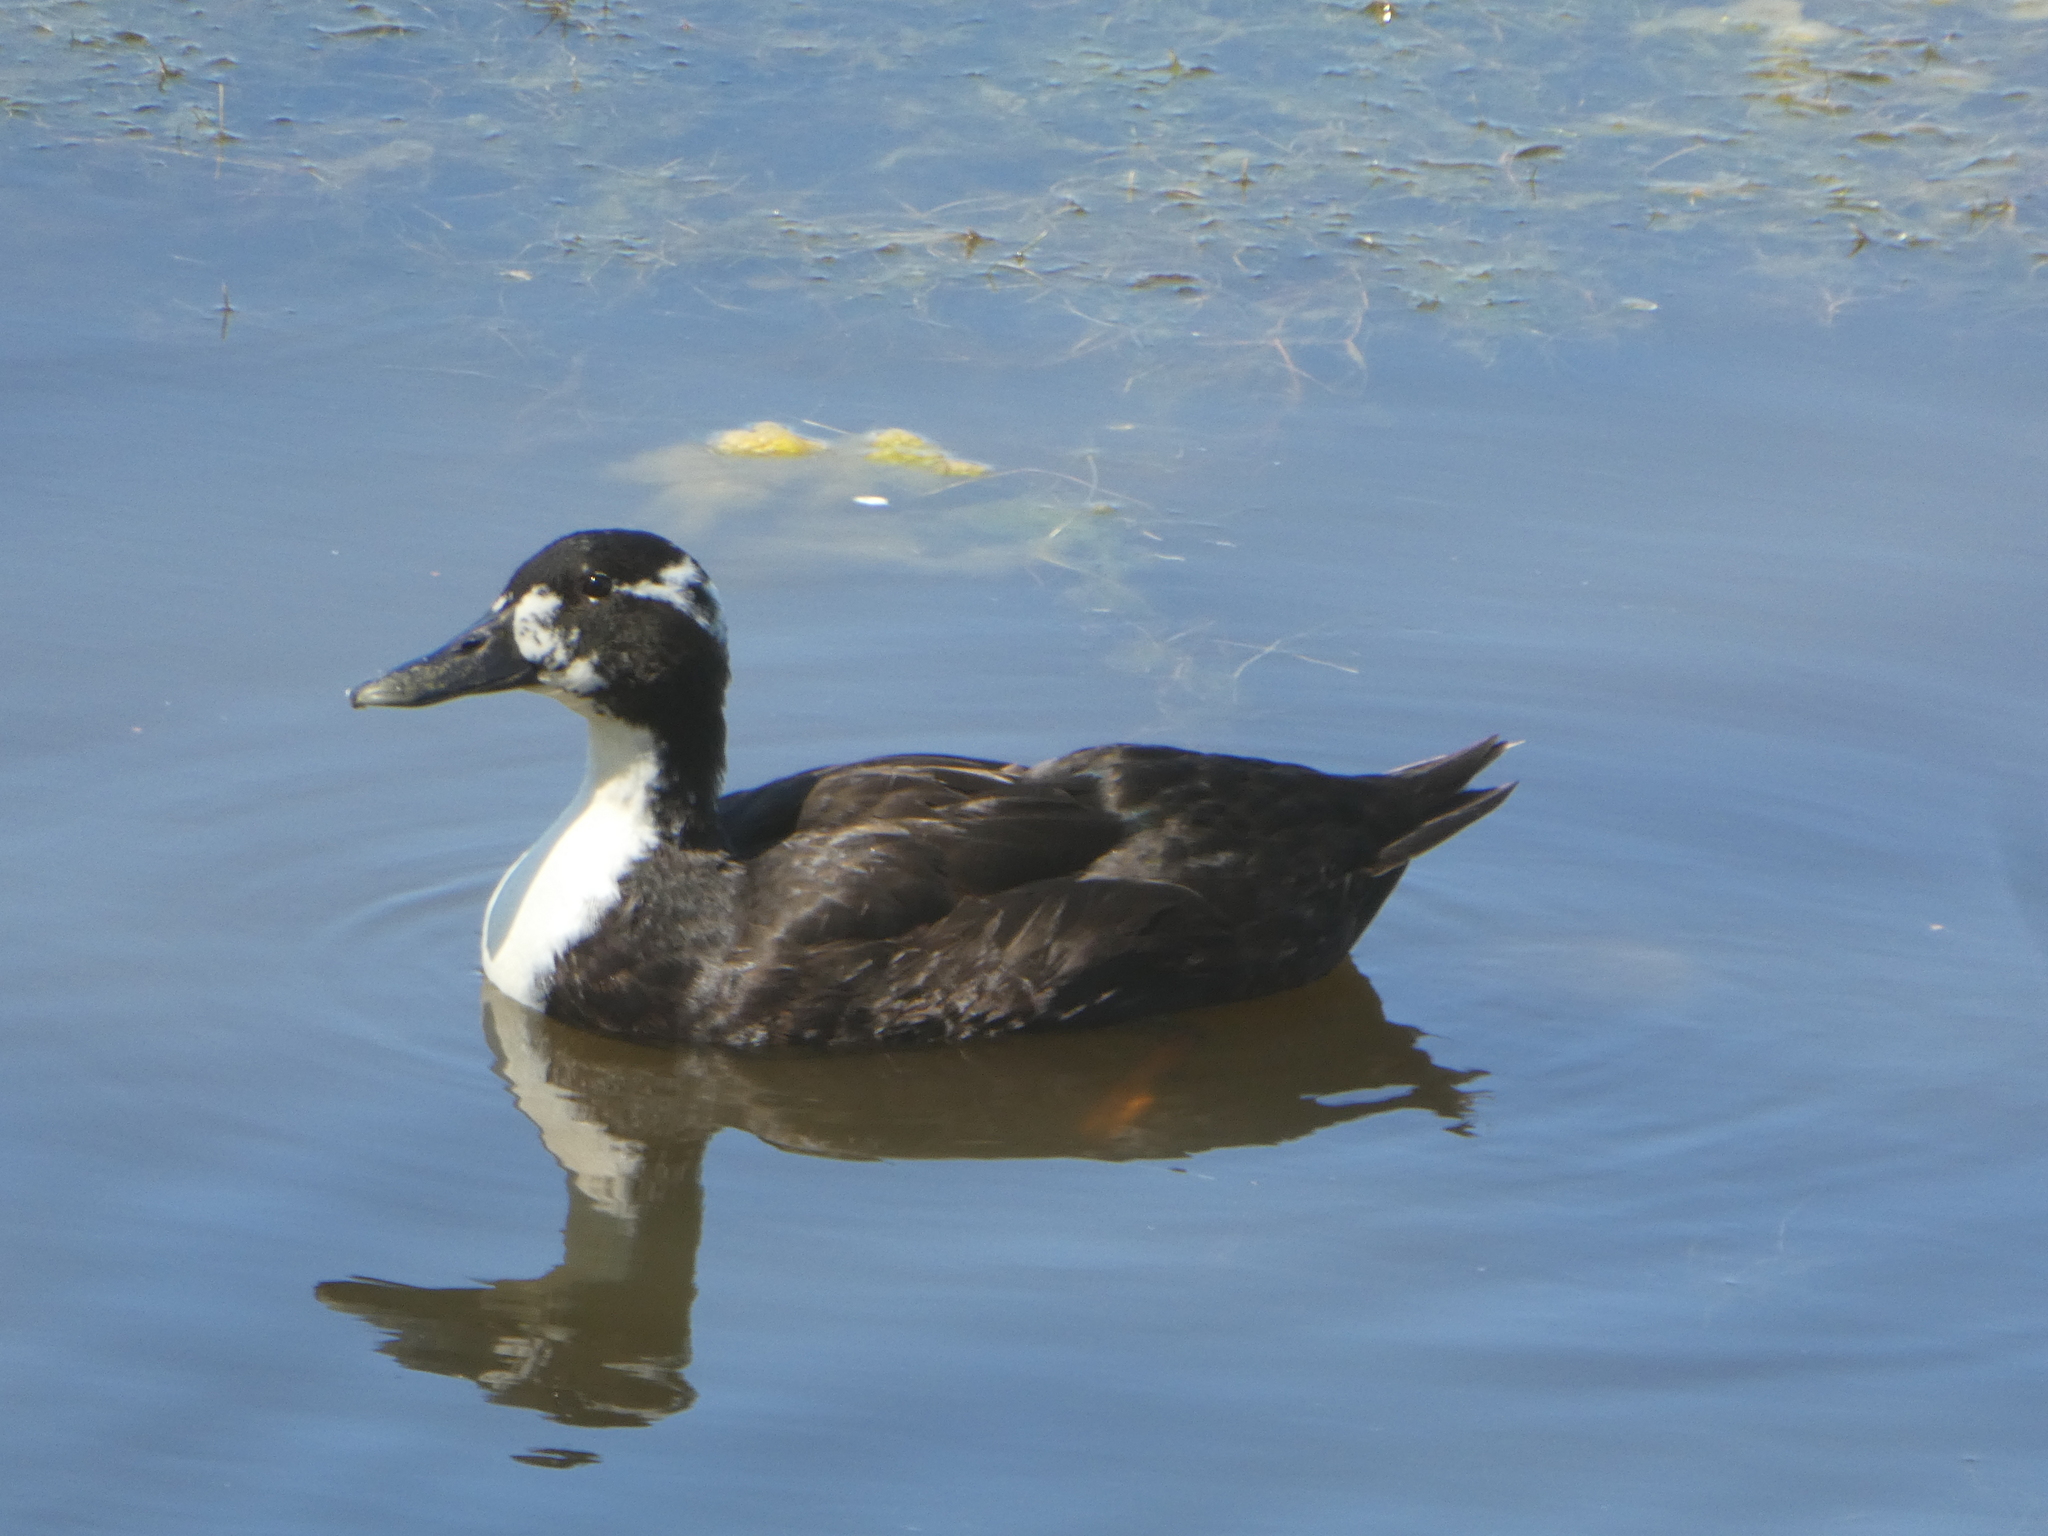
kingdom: Animalia
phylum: Chordata
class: Aves
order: Anseriformes
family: Anatidae
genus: Anas
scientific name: Anas platyrhynchos
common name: Mallard
